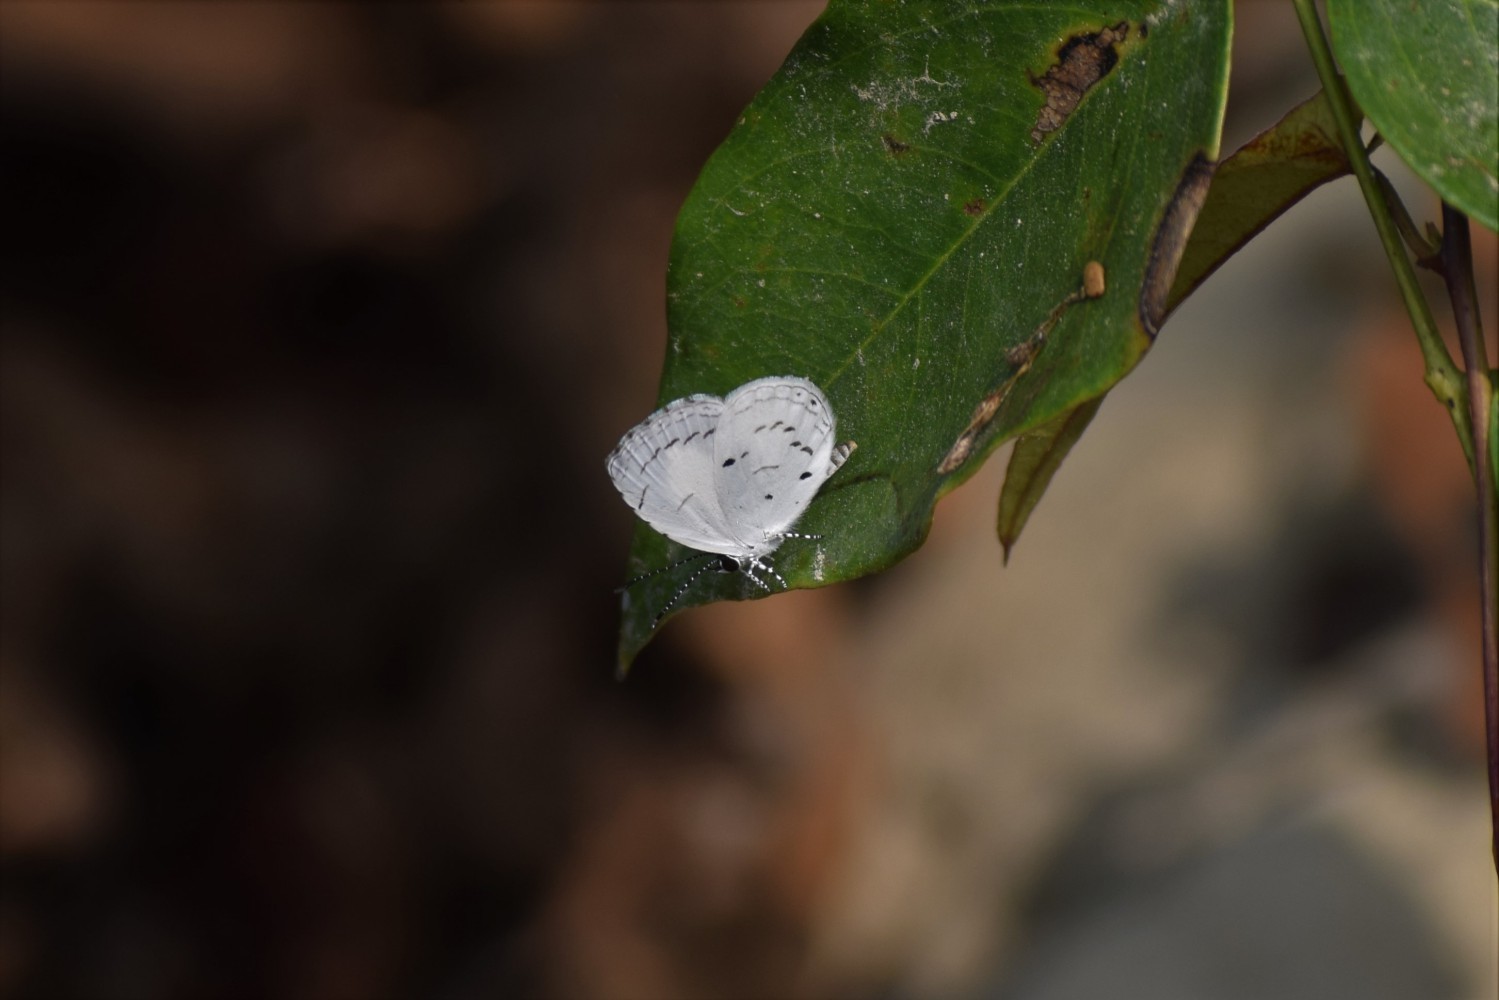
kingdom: Animalia
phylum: Arthropoda
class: Insecta
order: Lepidoptera
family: Lycaenidae
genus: Neopithecops
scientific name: Neopithecops zalmora
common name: Quaker
